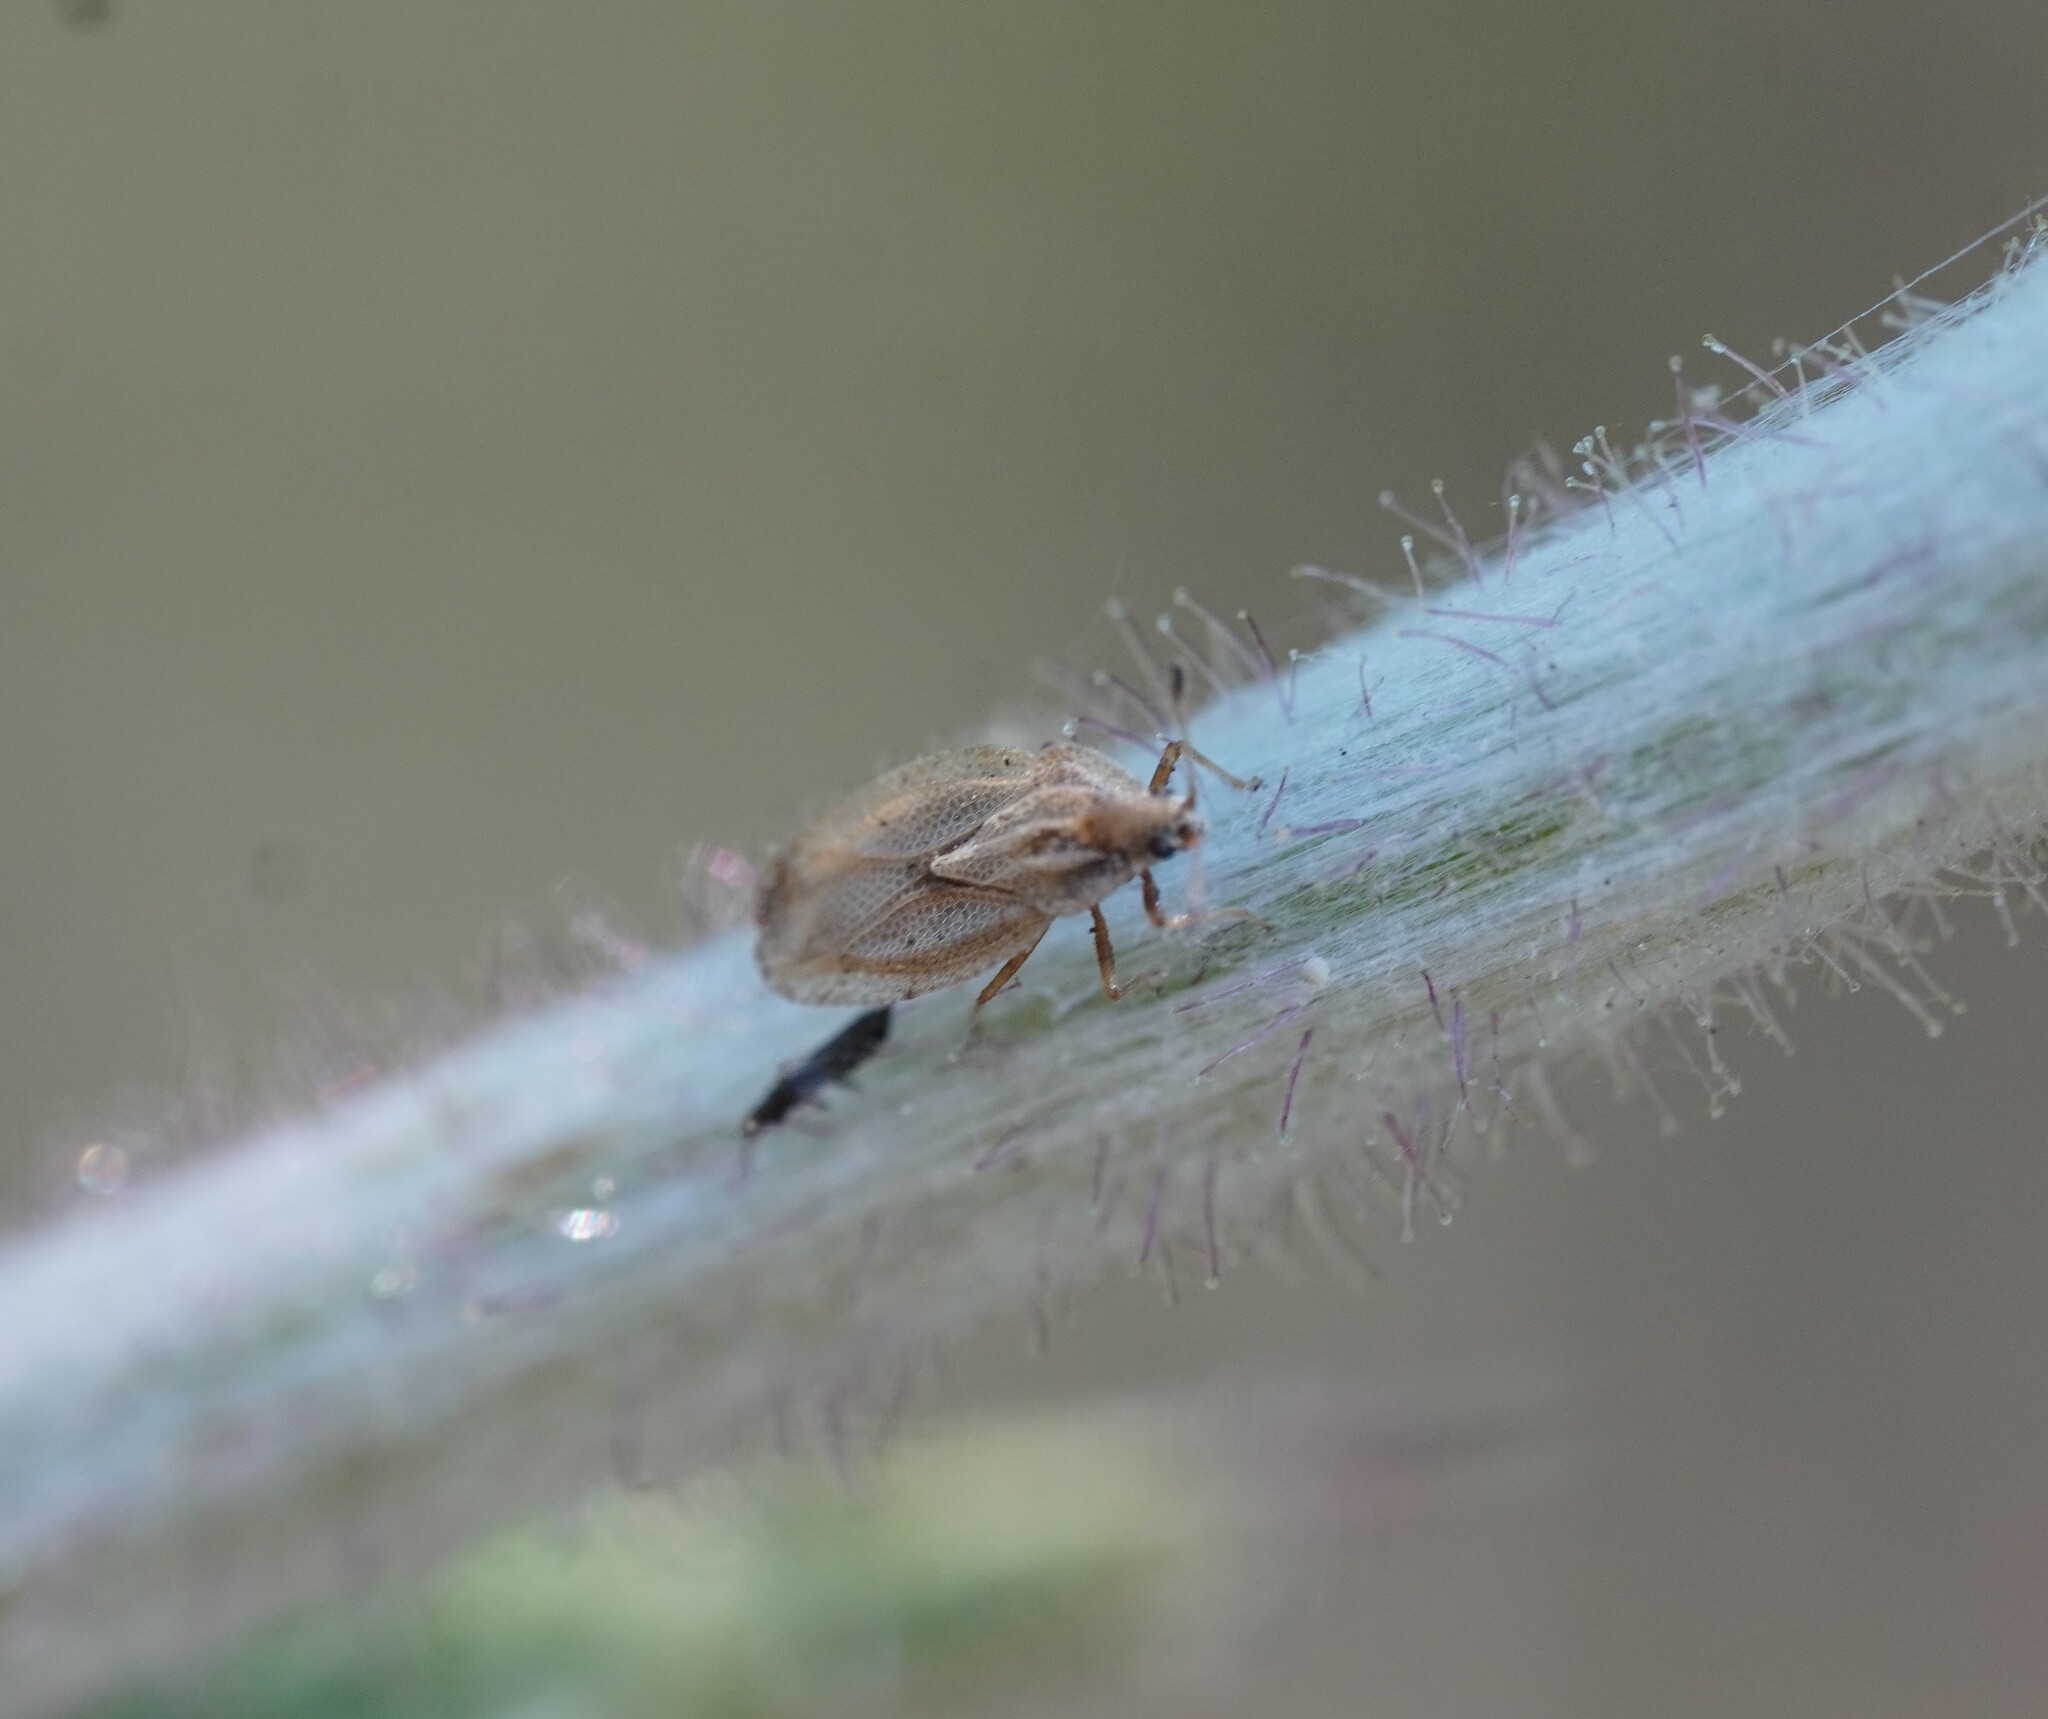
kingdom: Plantae
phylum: Tracheophyta
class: Liliopsida
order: Poales
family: Juncaceae
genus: Elasmotropis
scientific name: Elasmotropis testacea
